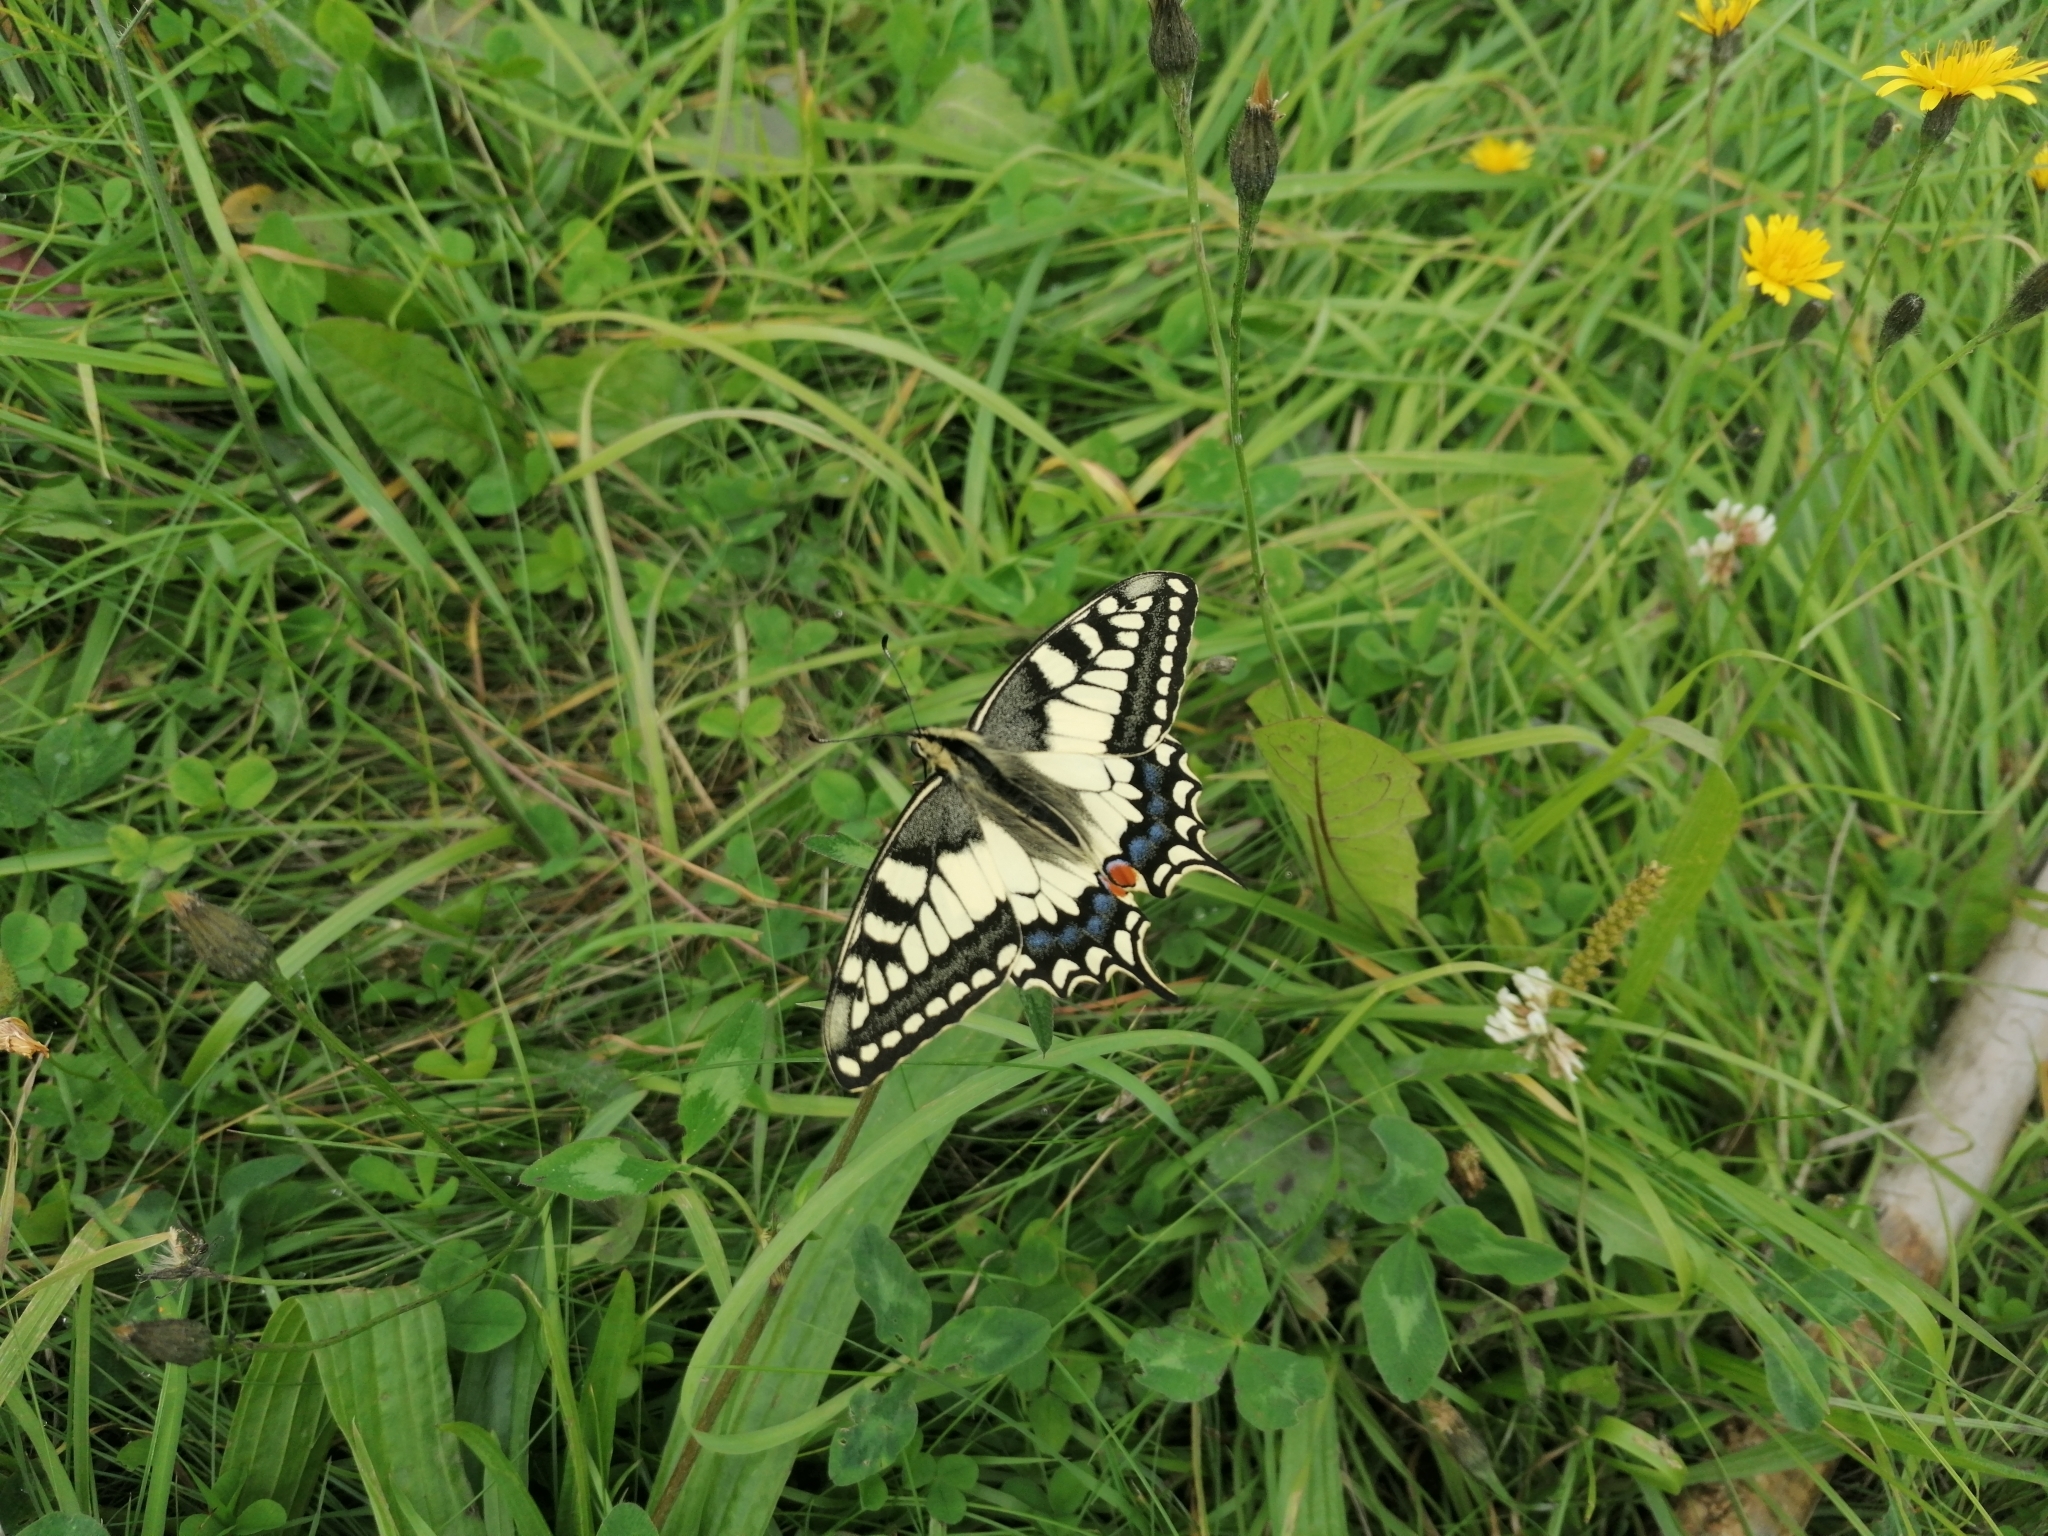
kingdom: Animalia
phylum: Arthropoda
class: Insecta
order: Lepidoptera
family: Papilionidae
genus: Papilio
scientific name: Papilio machaon
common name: Swallowtail
